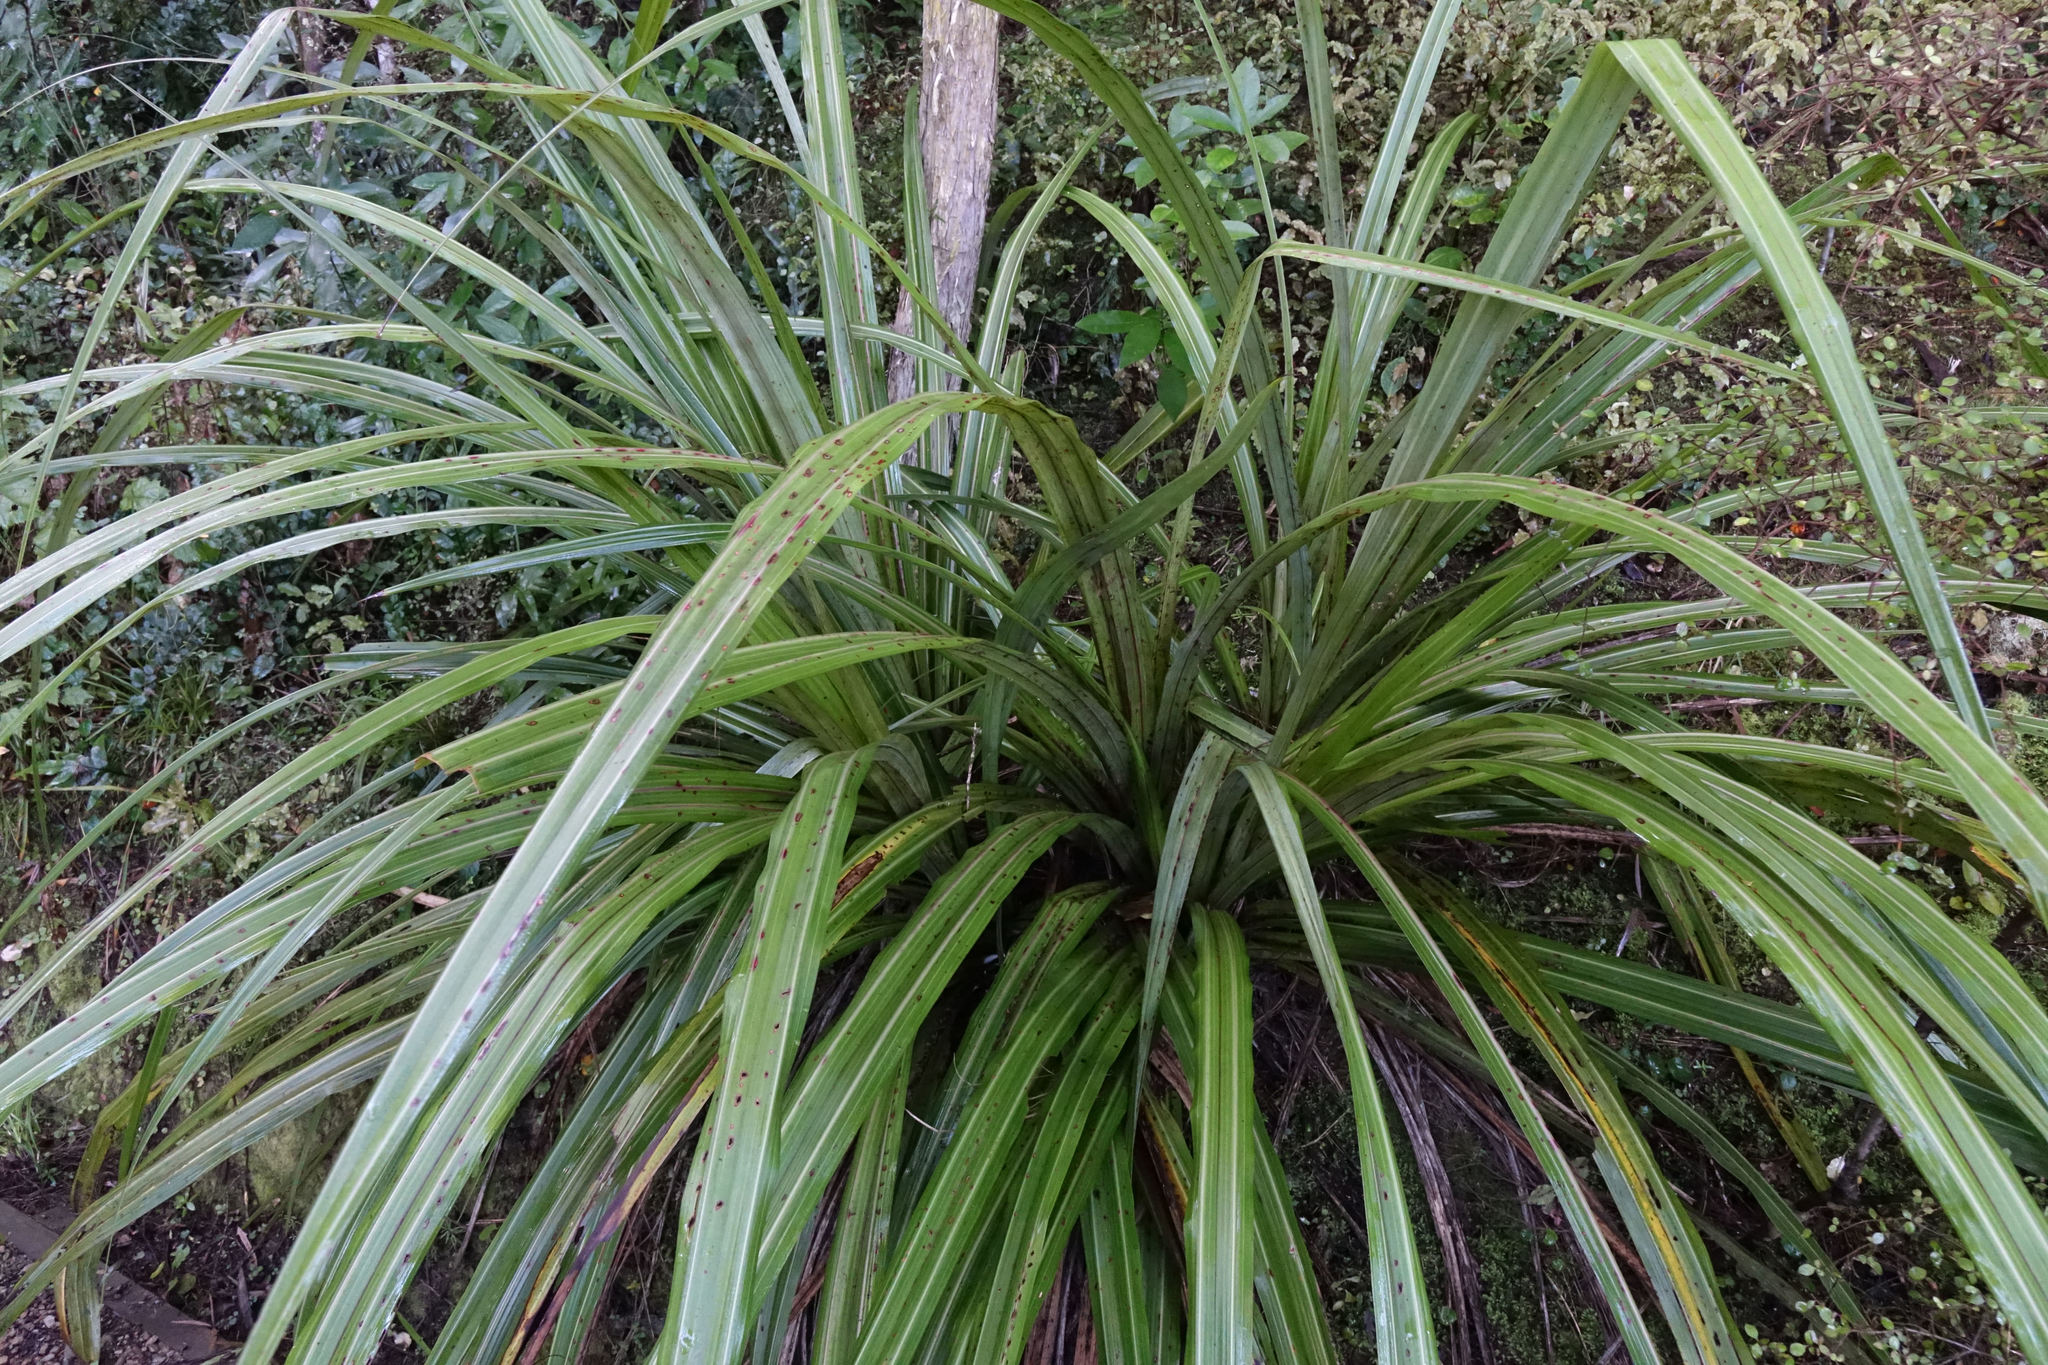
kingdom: Plantae
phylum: Tracheophyta
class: Liliopsida
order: Asparagales
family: Asteliaceae
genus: Astelia
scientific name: Astelia fragrans
